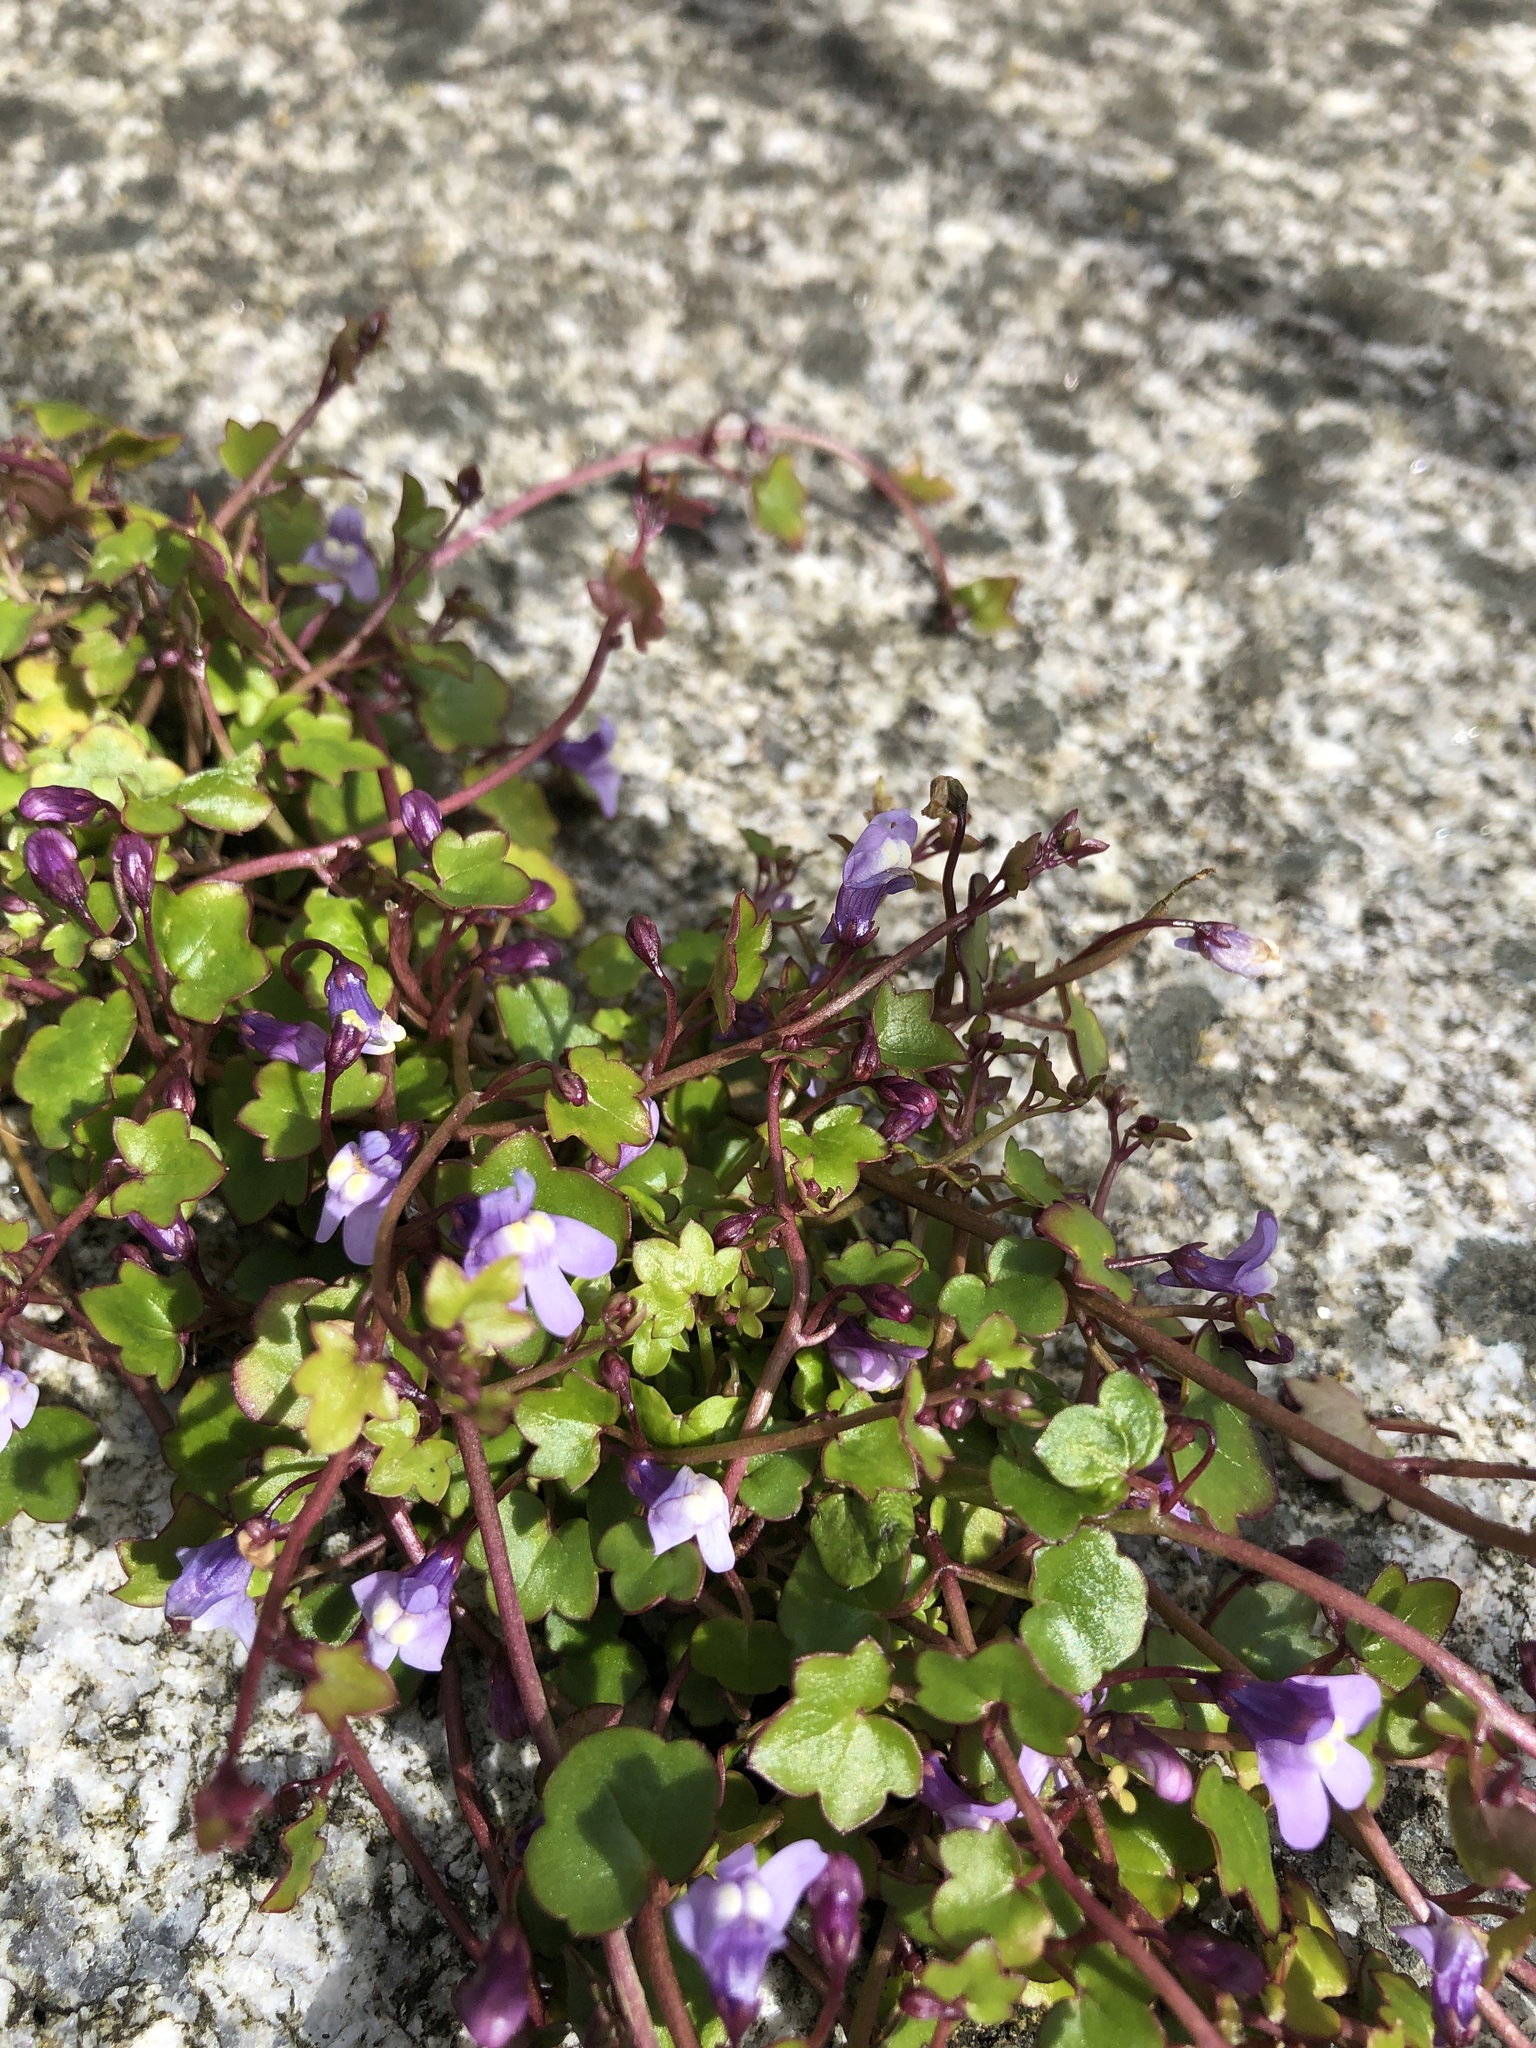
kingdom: Plantae
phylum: Tracheophyta
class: Magnoliopsida
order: Lamiales
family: Plantaginaceae
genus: Cymbalaria
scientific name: Cymbalaria muralis
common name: Ivy-leaved toadflax
